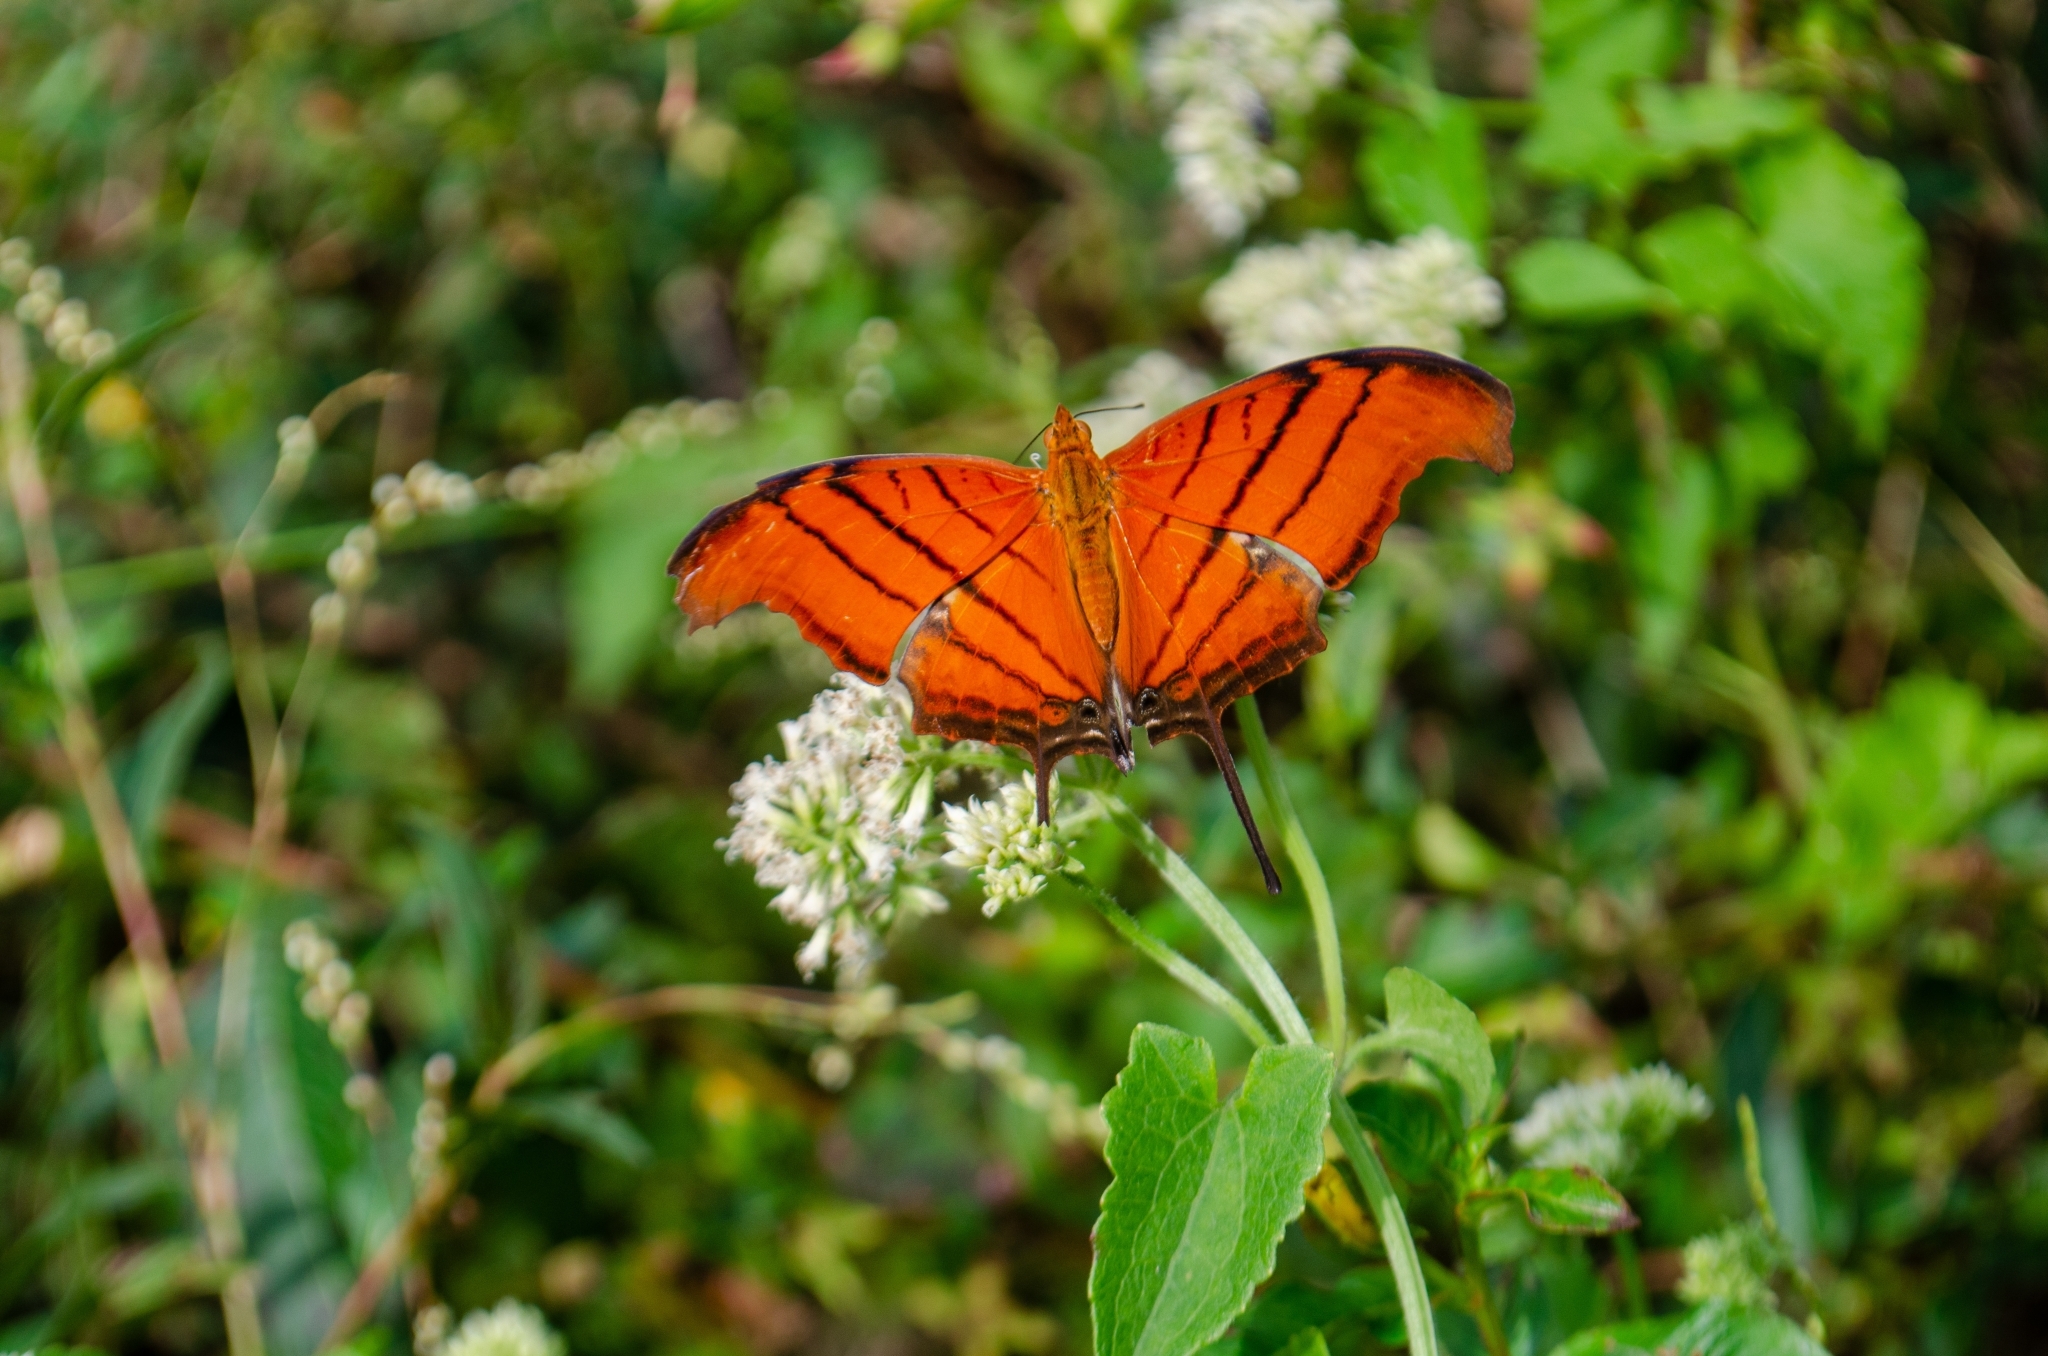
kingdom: Animalia
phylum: Arthropoda
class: Insecta
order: Lepidoptera
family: Nymphalidae
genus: Marpesia
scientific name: Marpesia petreus
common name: Red dagger wing
